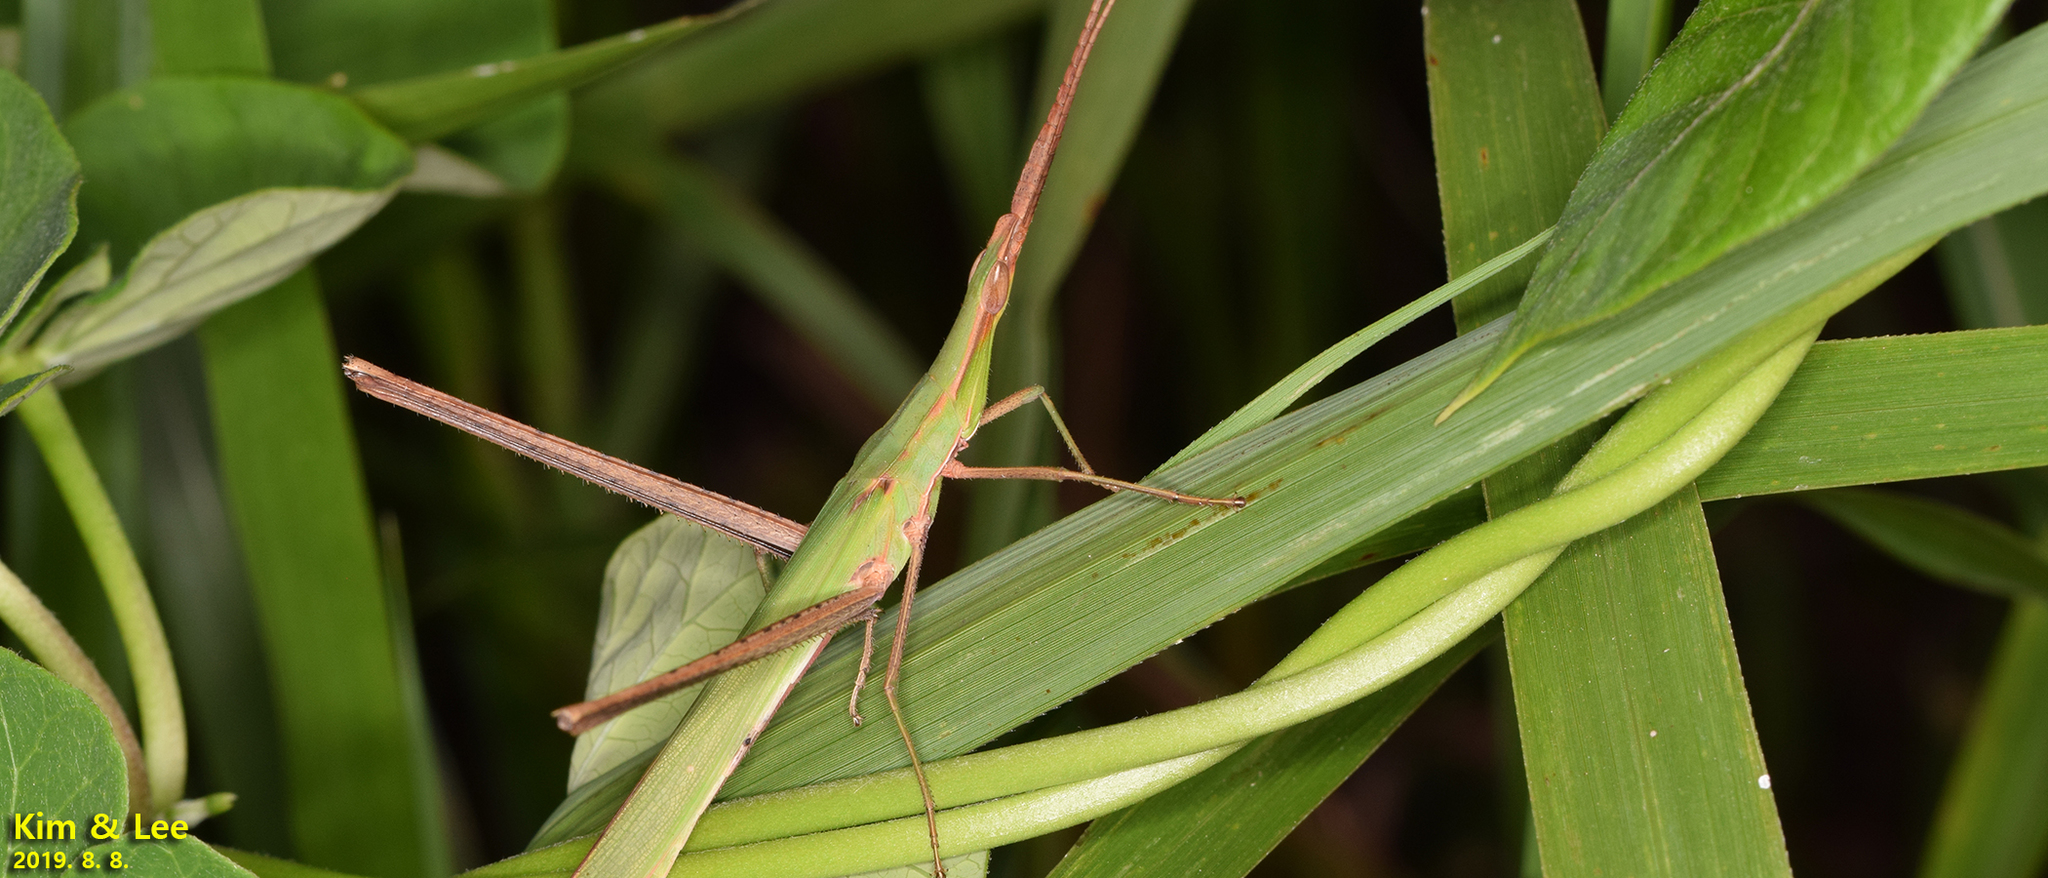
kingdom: Animalia
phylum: Arthropoda
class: Insecta
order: Orthoptera
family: Acrididae
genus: Acrida
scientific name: Acrida cinerea
